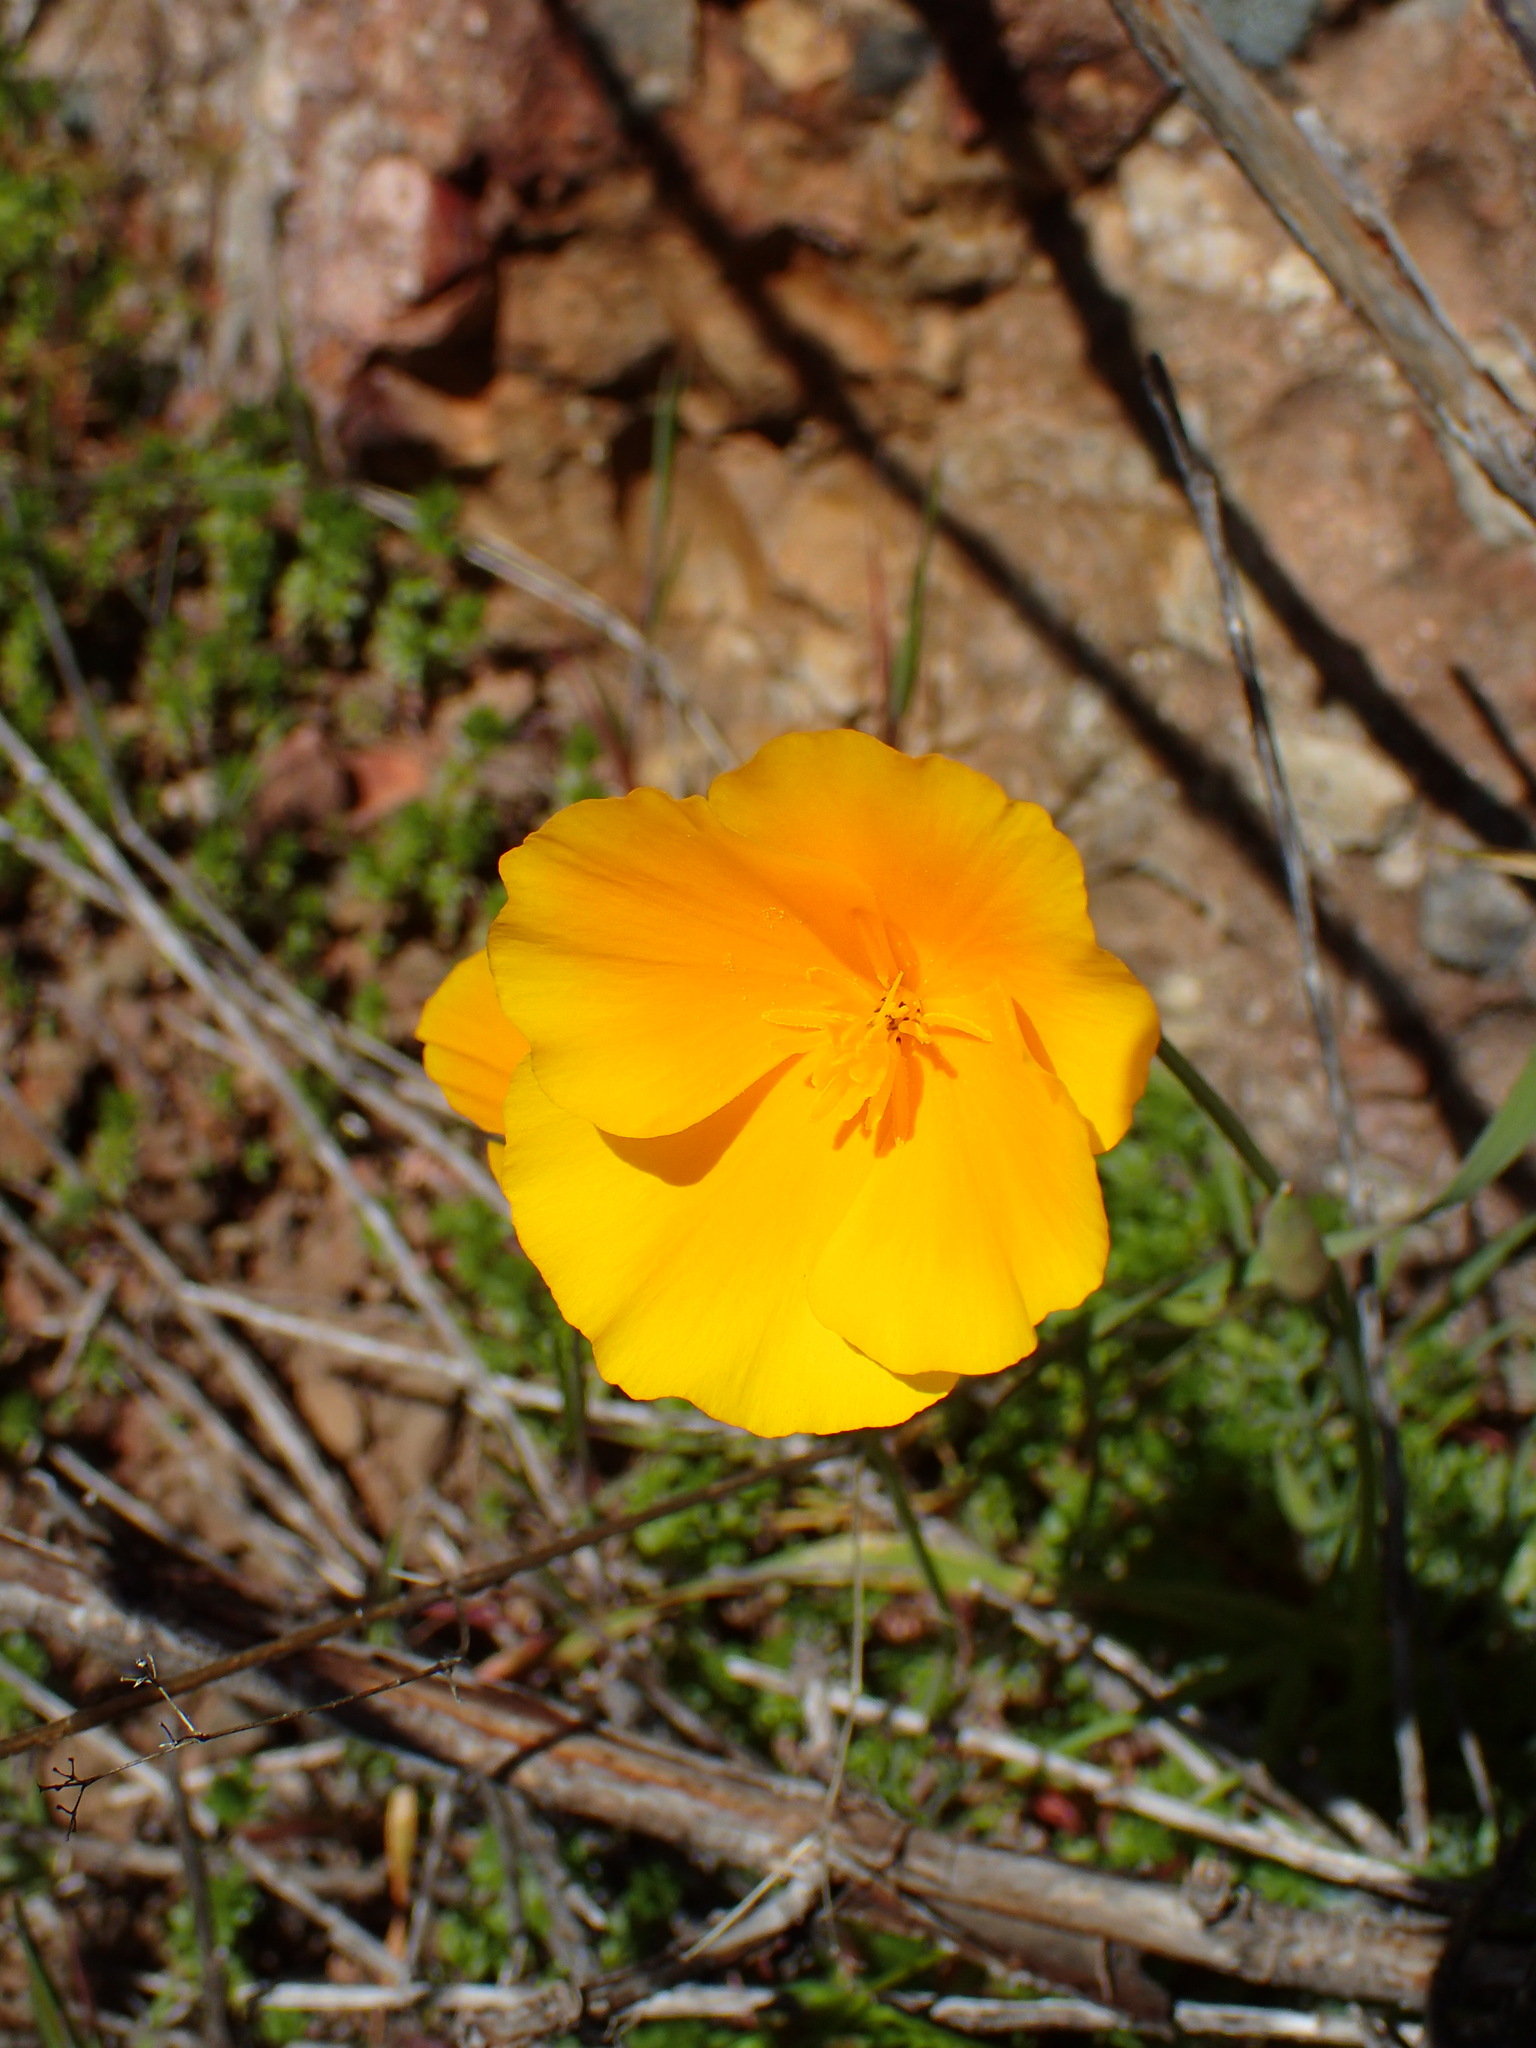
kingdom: Plantae
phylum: Tracheophyta
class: Magnoliopsida
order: Ranunculales
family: Papaveraceae
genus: Eschscholzia
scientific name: Eschscholzia caespitosa
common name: Tufted california-poppy
